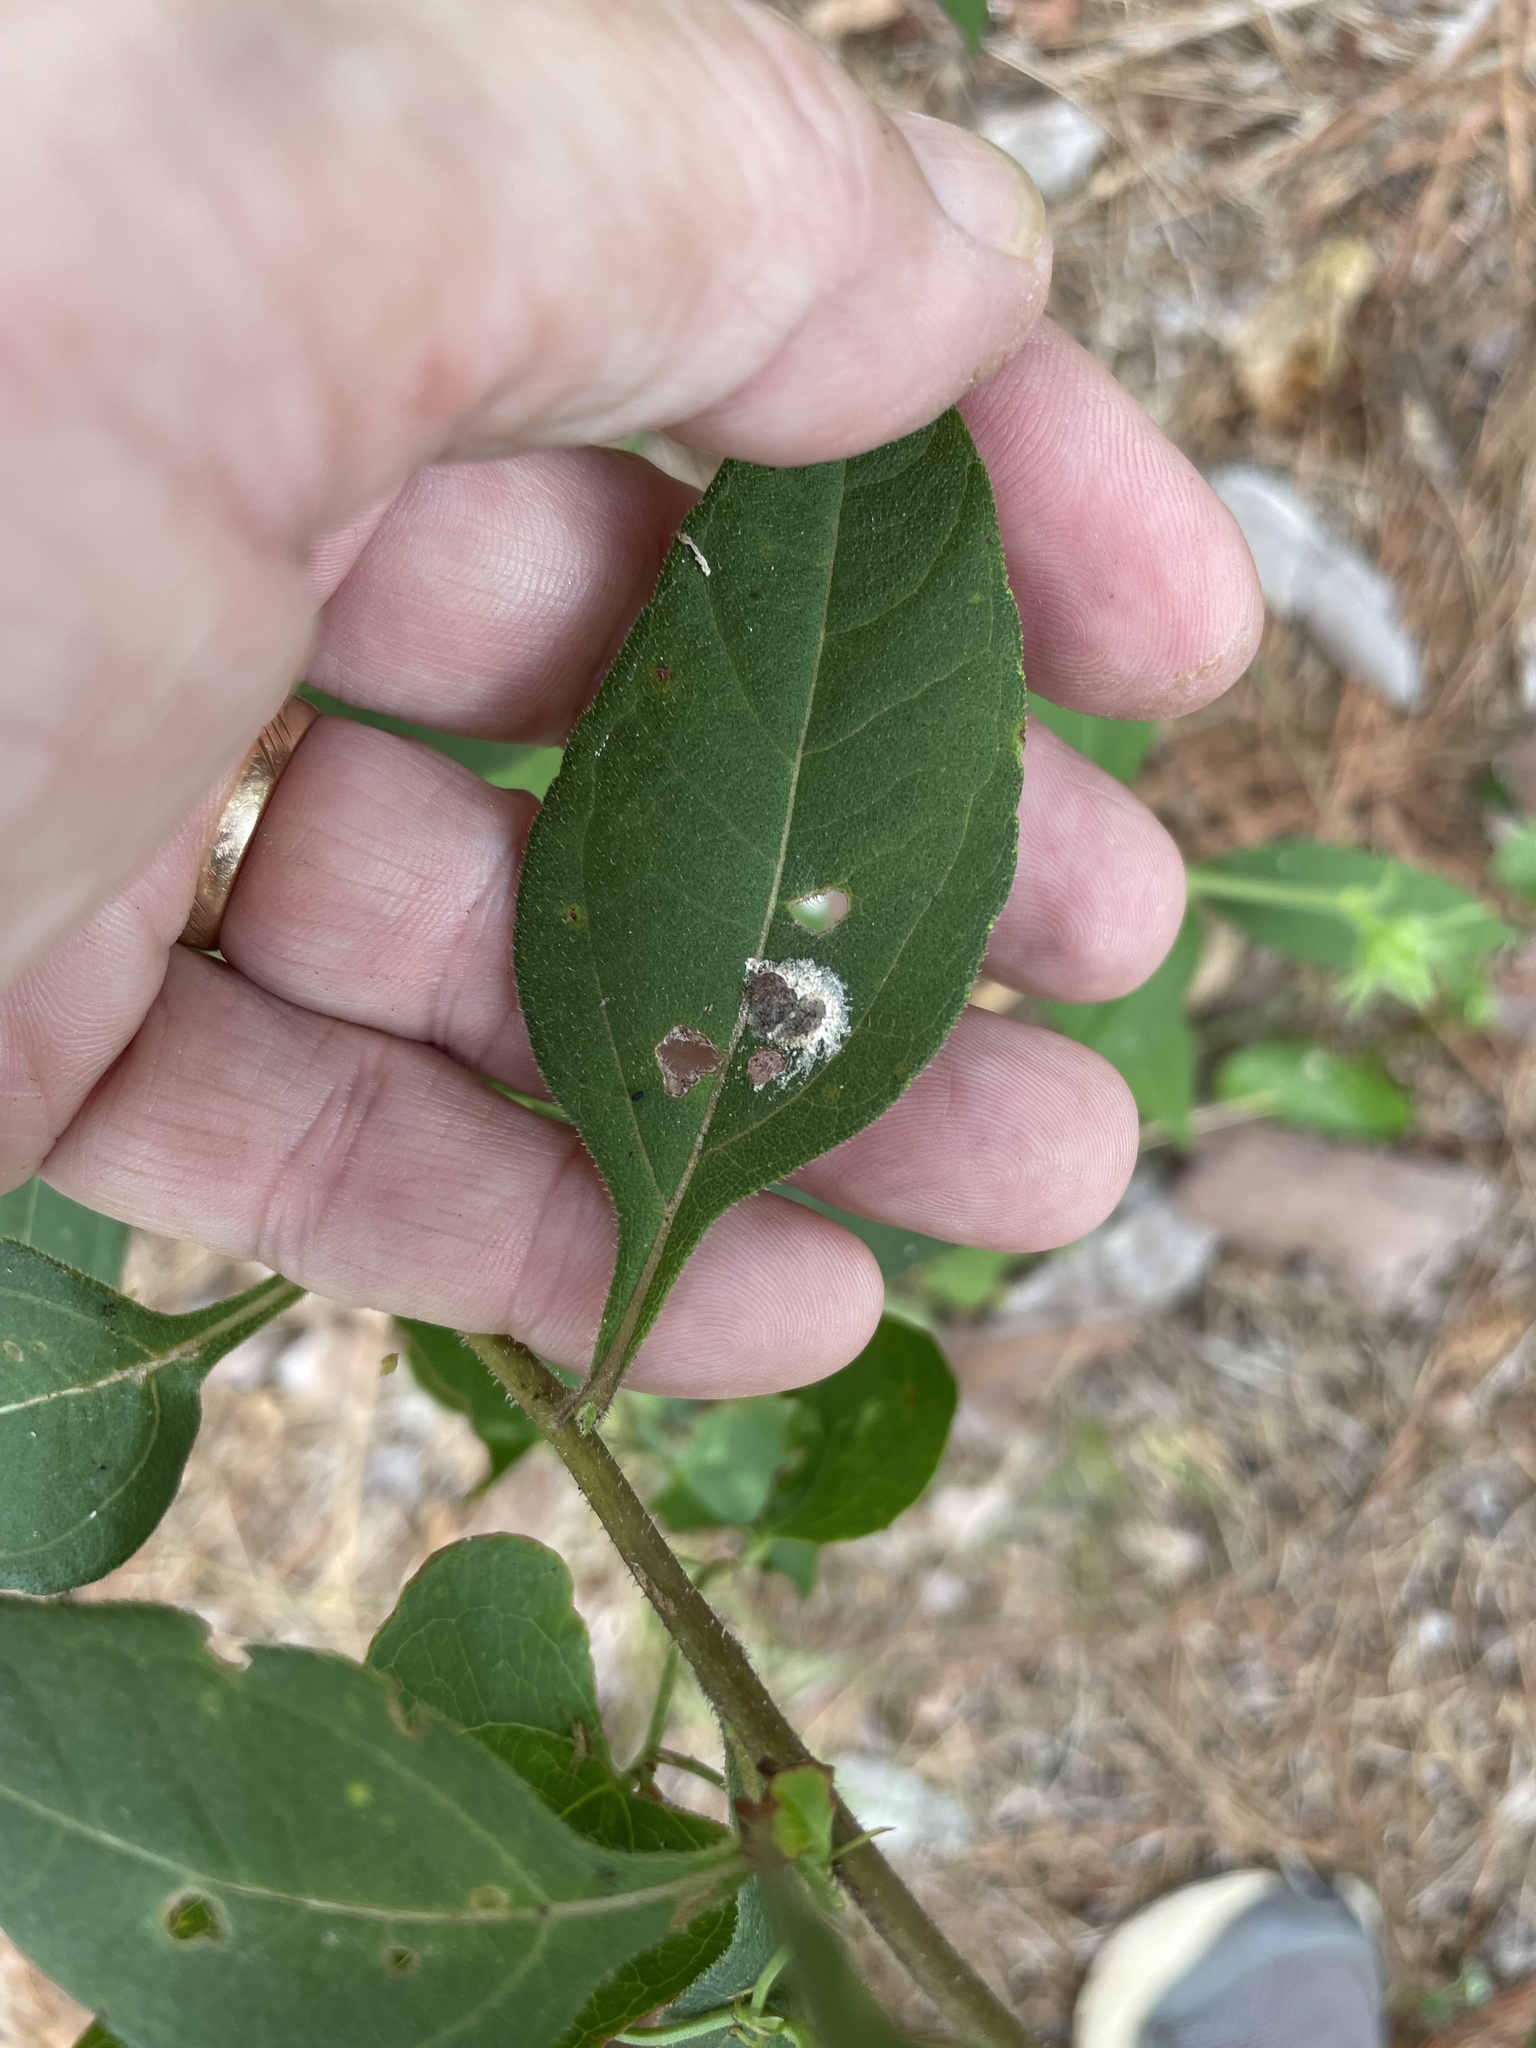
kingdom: Plantae
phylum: Tracheophyta
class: Magnoliopsida
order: Asterales
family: Asteraceae
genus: Helianthus
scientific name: Helianthus tuberosus
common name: Jerusalem artichoke
